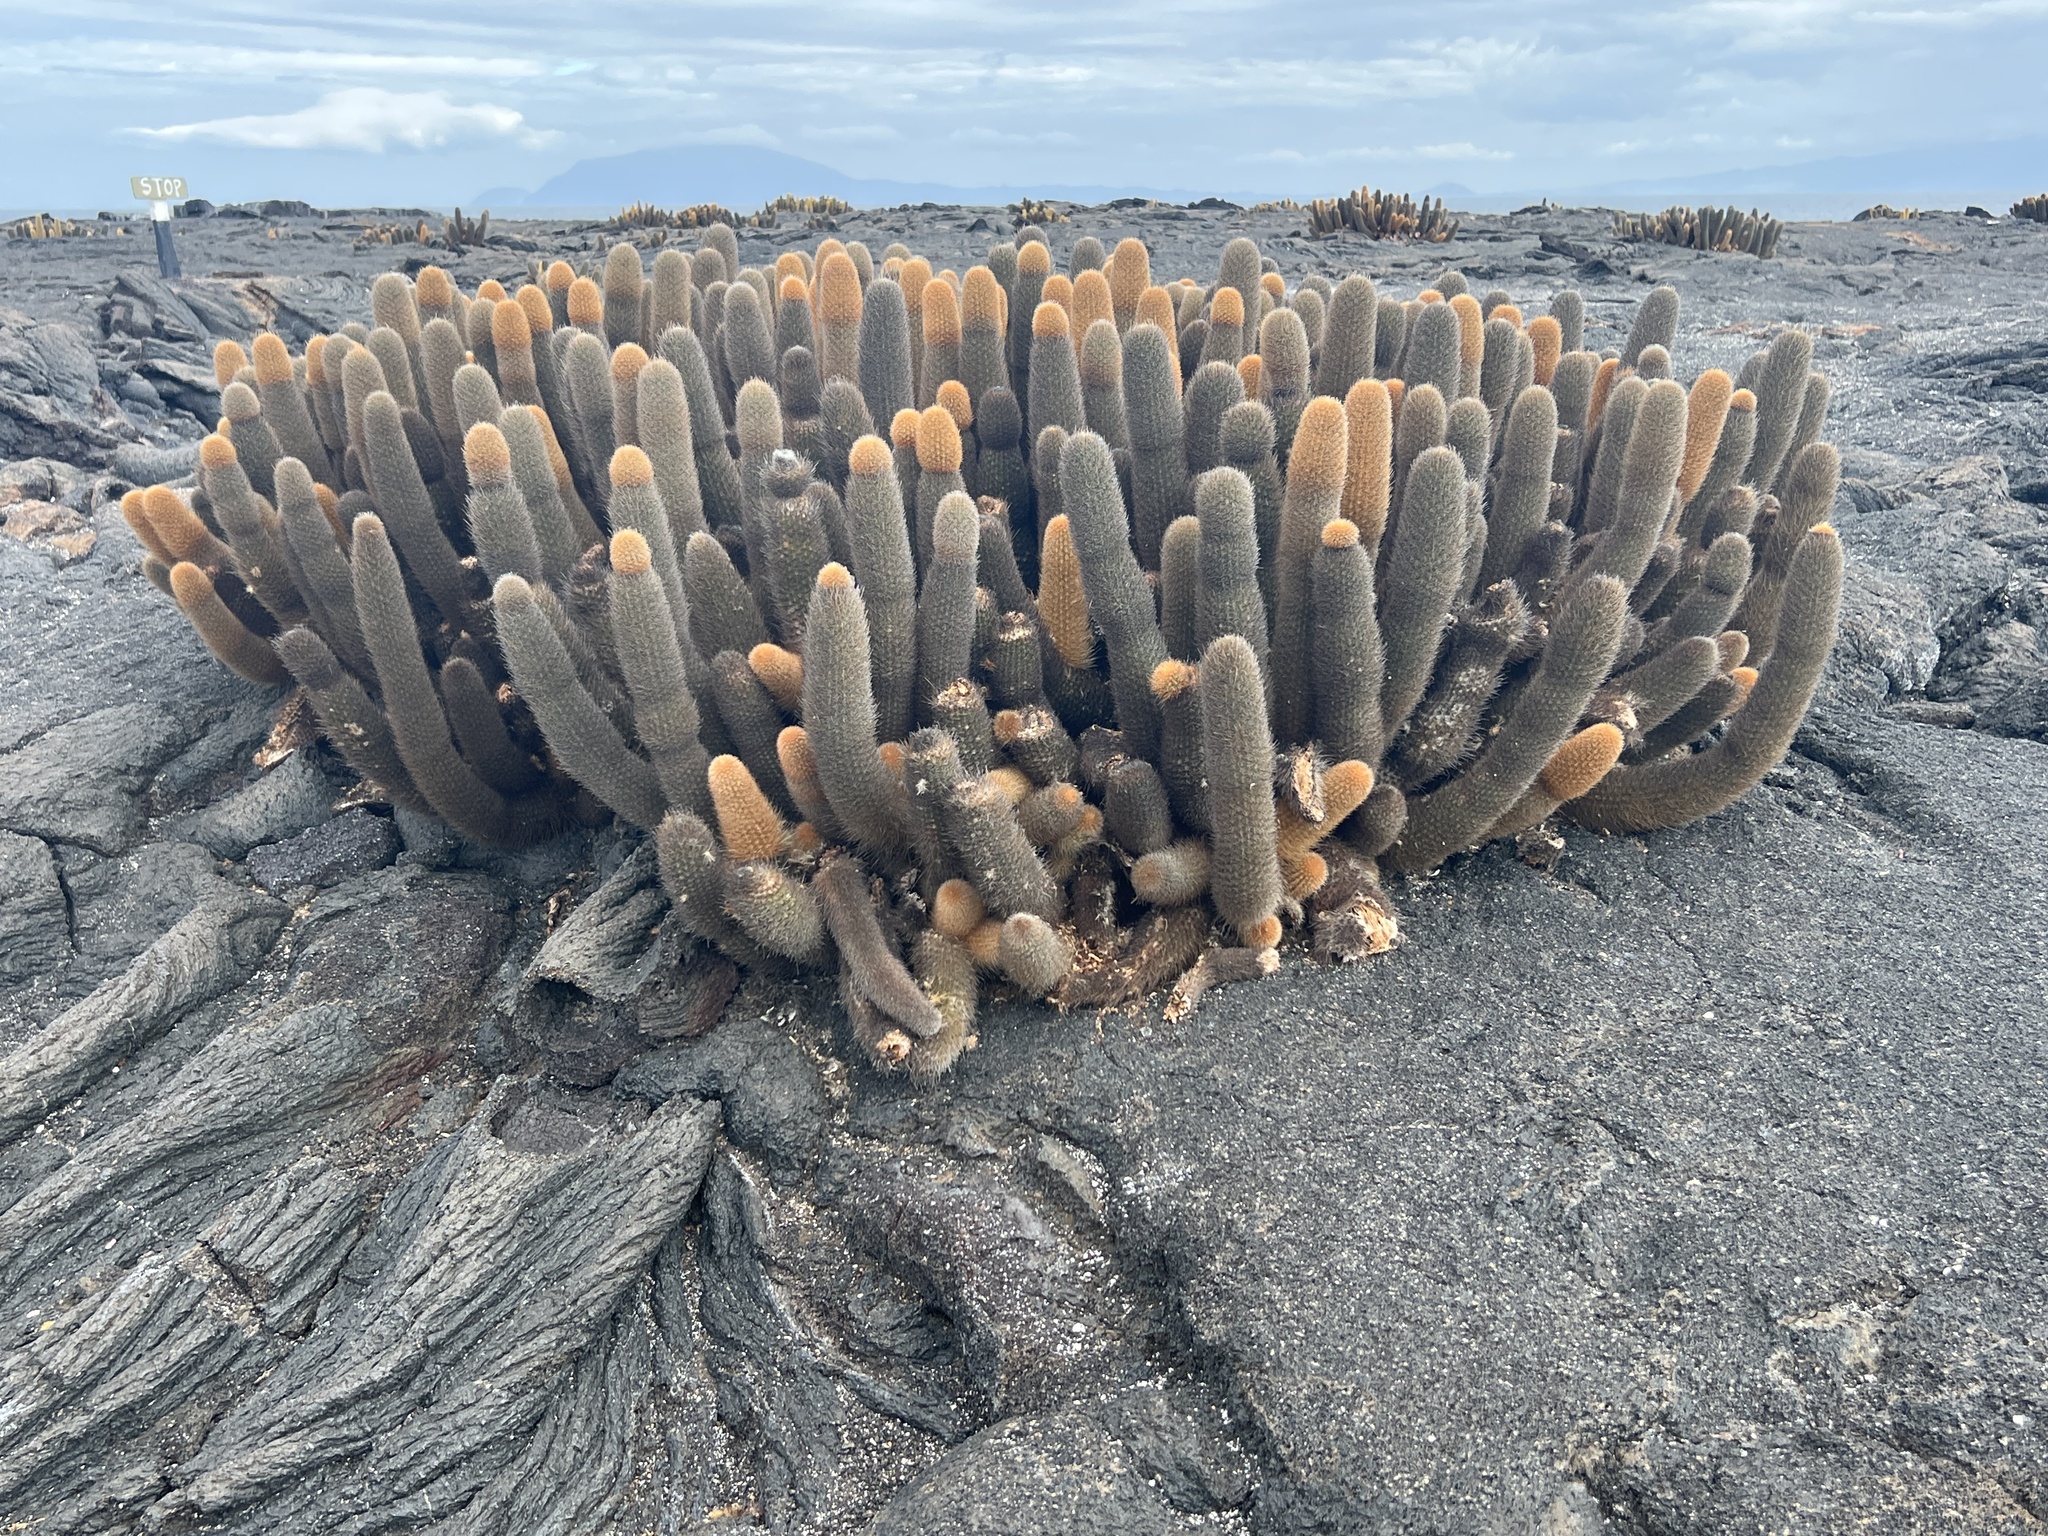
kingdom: Plantae
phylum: Tracheophyta
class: Magnoliopsida
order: Caryophyllales
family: Cactaceae
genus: Brachycereus
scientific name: Brachycereus nesioticus
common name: Lava cactus
